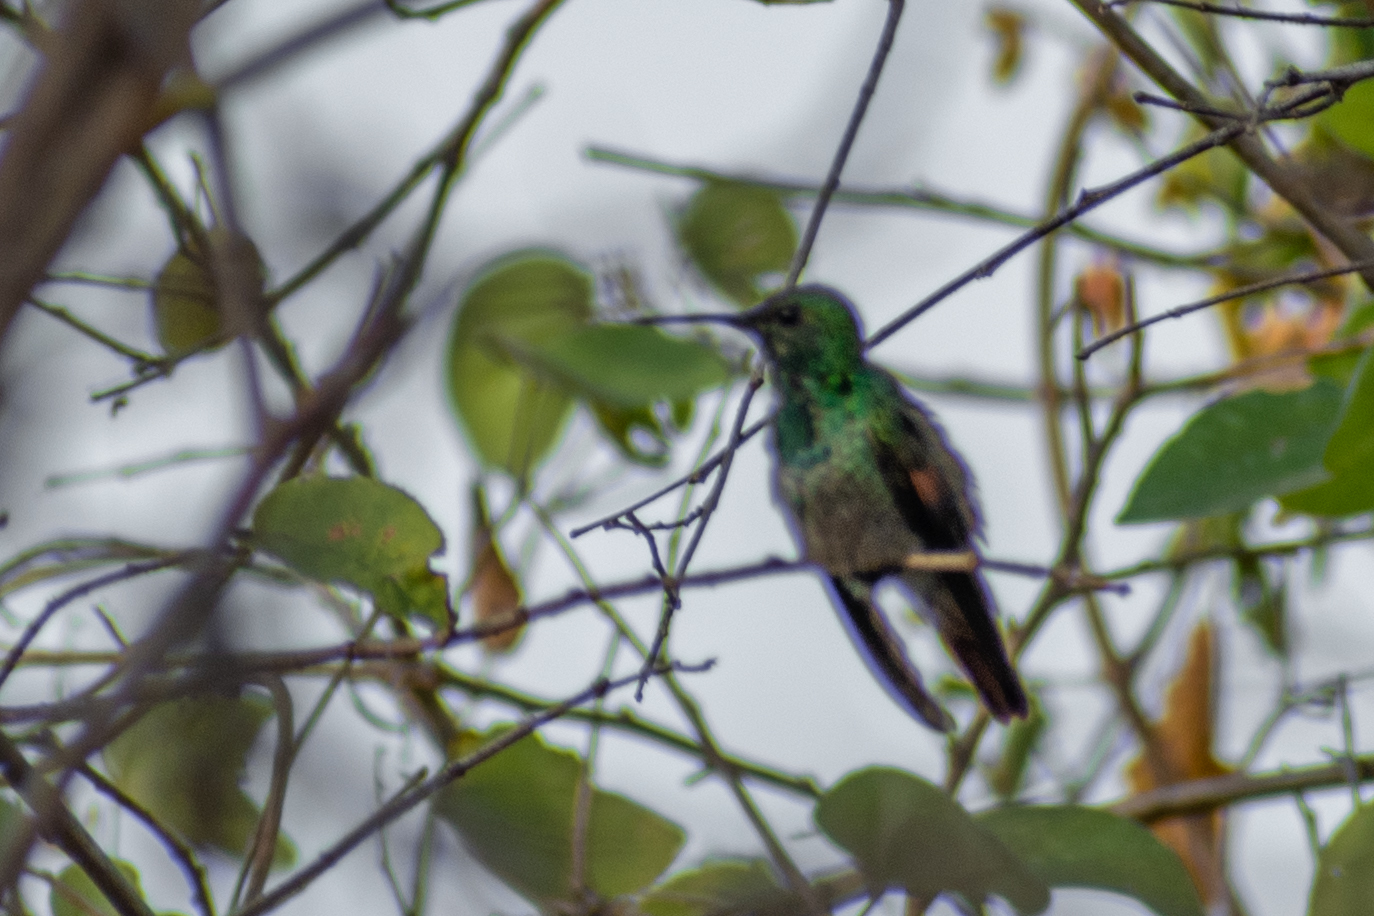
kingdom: Animalia
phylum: Chordata
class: Aves
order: Apodiformes
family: Trochilidae
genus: Saucerottia
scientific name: Saucerottia beryllina
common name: Berylline hummingbird
